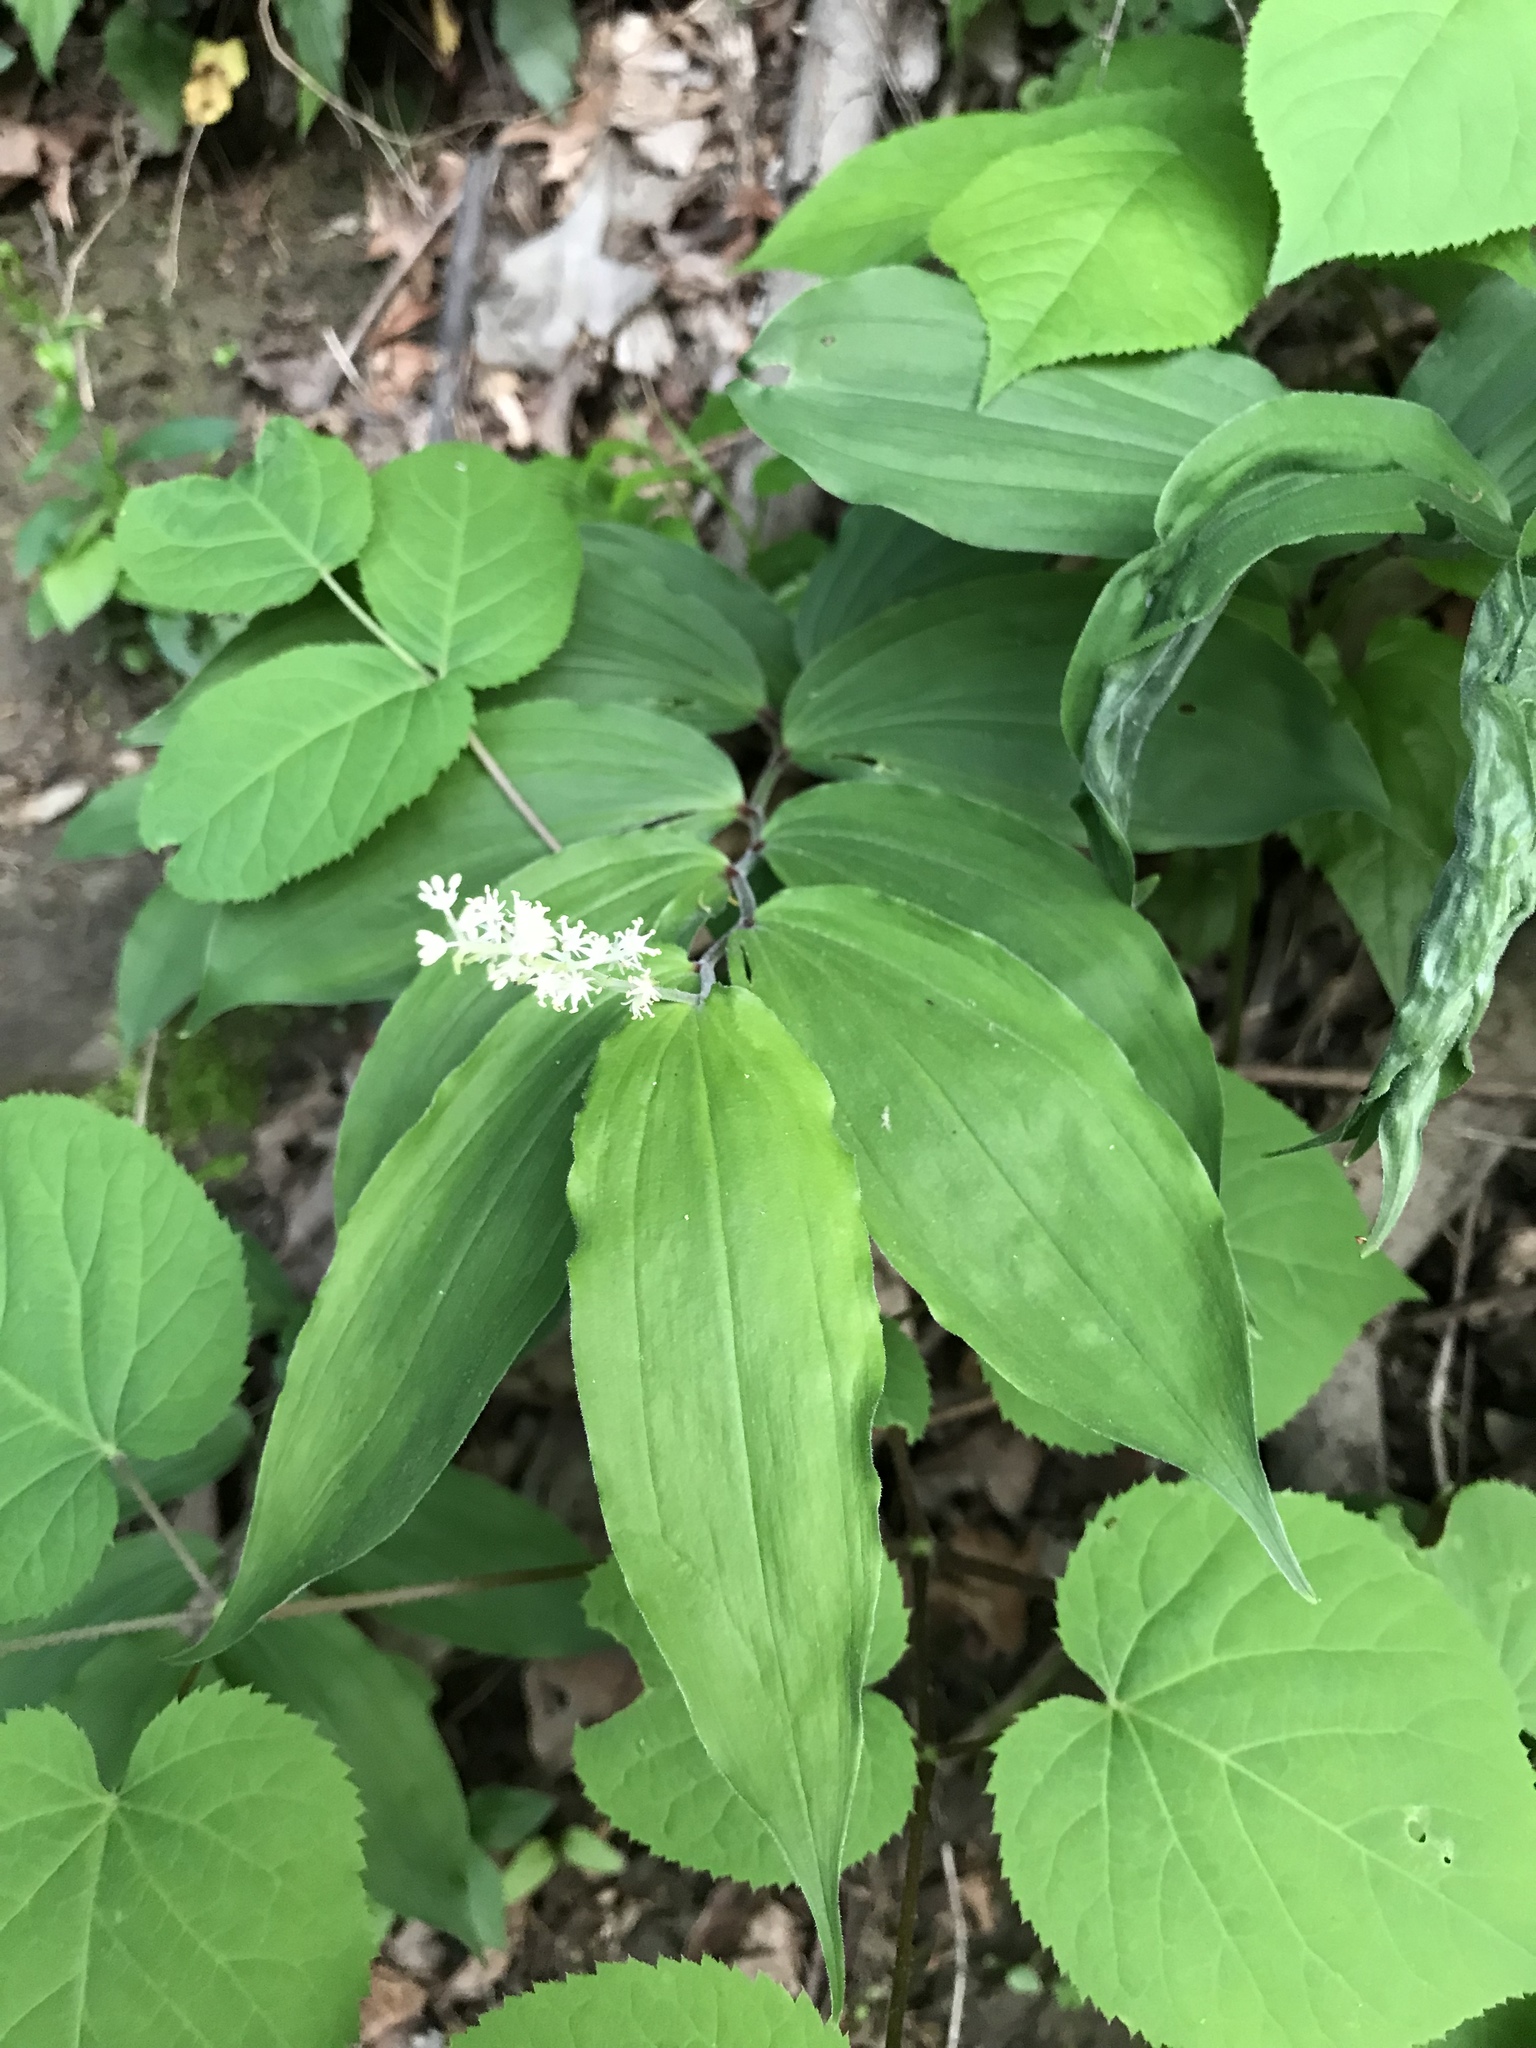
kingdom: Plantae
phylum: Tracheophyta
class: Liliopsida
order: Asparagales
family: Asparagaceae
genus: Maianthemum
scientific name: Maianthemum racemosum
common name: False spikenard
